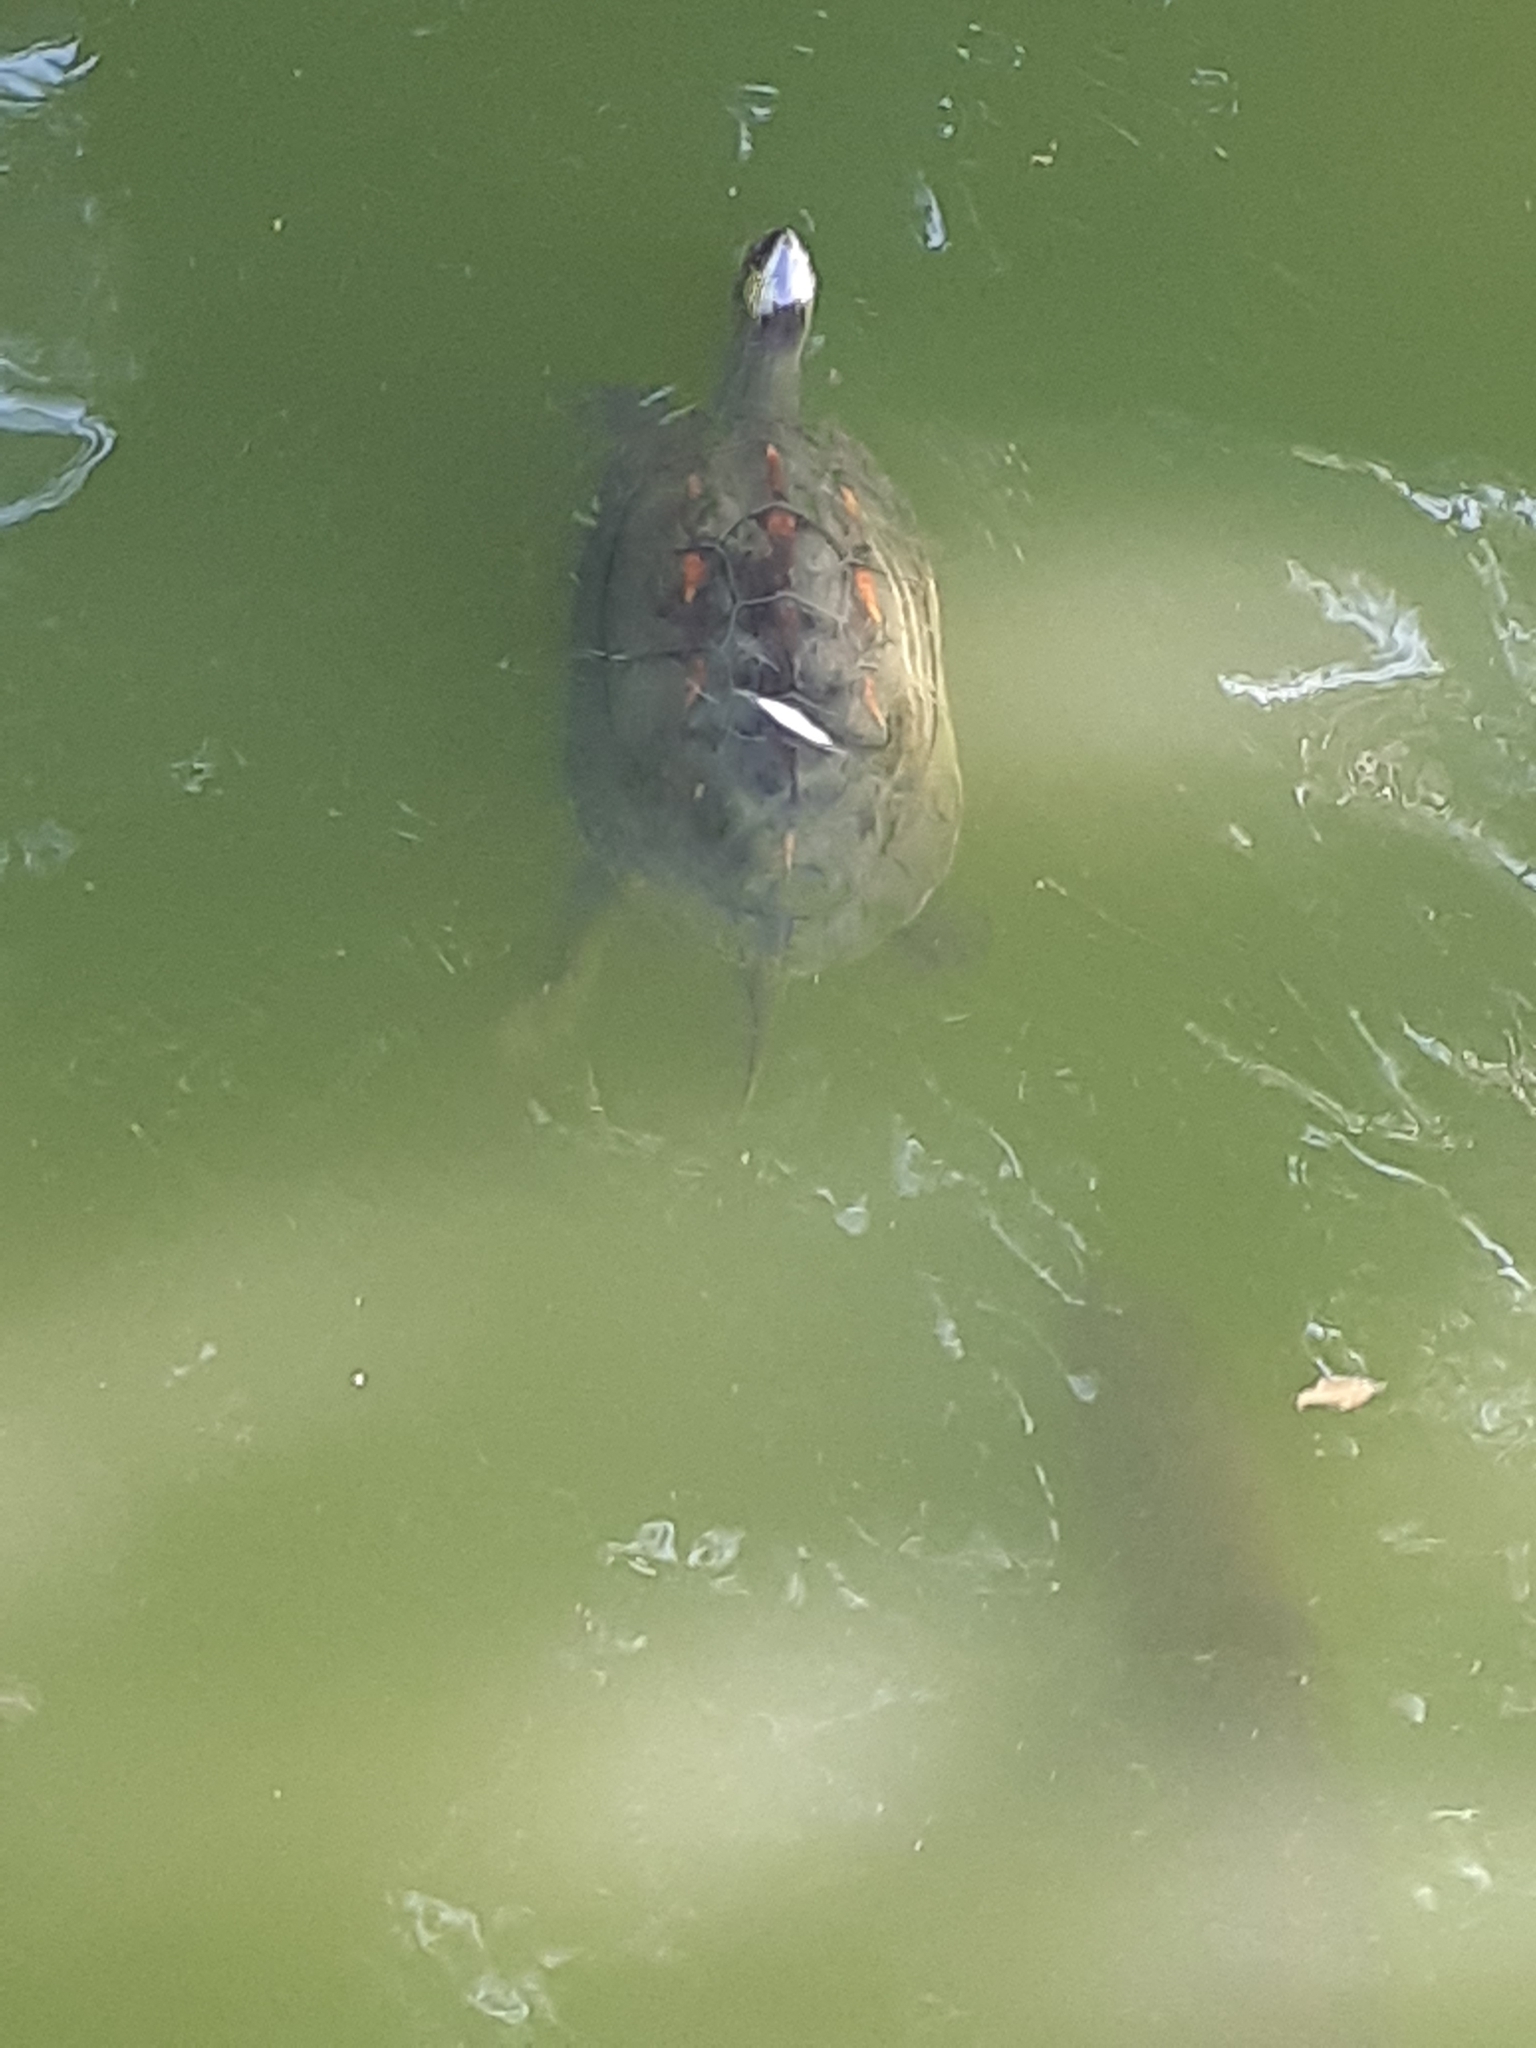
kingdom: Animalia
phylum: Chordata
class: Testudines
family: Geoemydidae
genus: Mauremys
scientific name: Mauremys sinensis
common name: Chinese stripe-necked turtle
